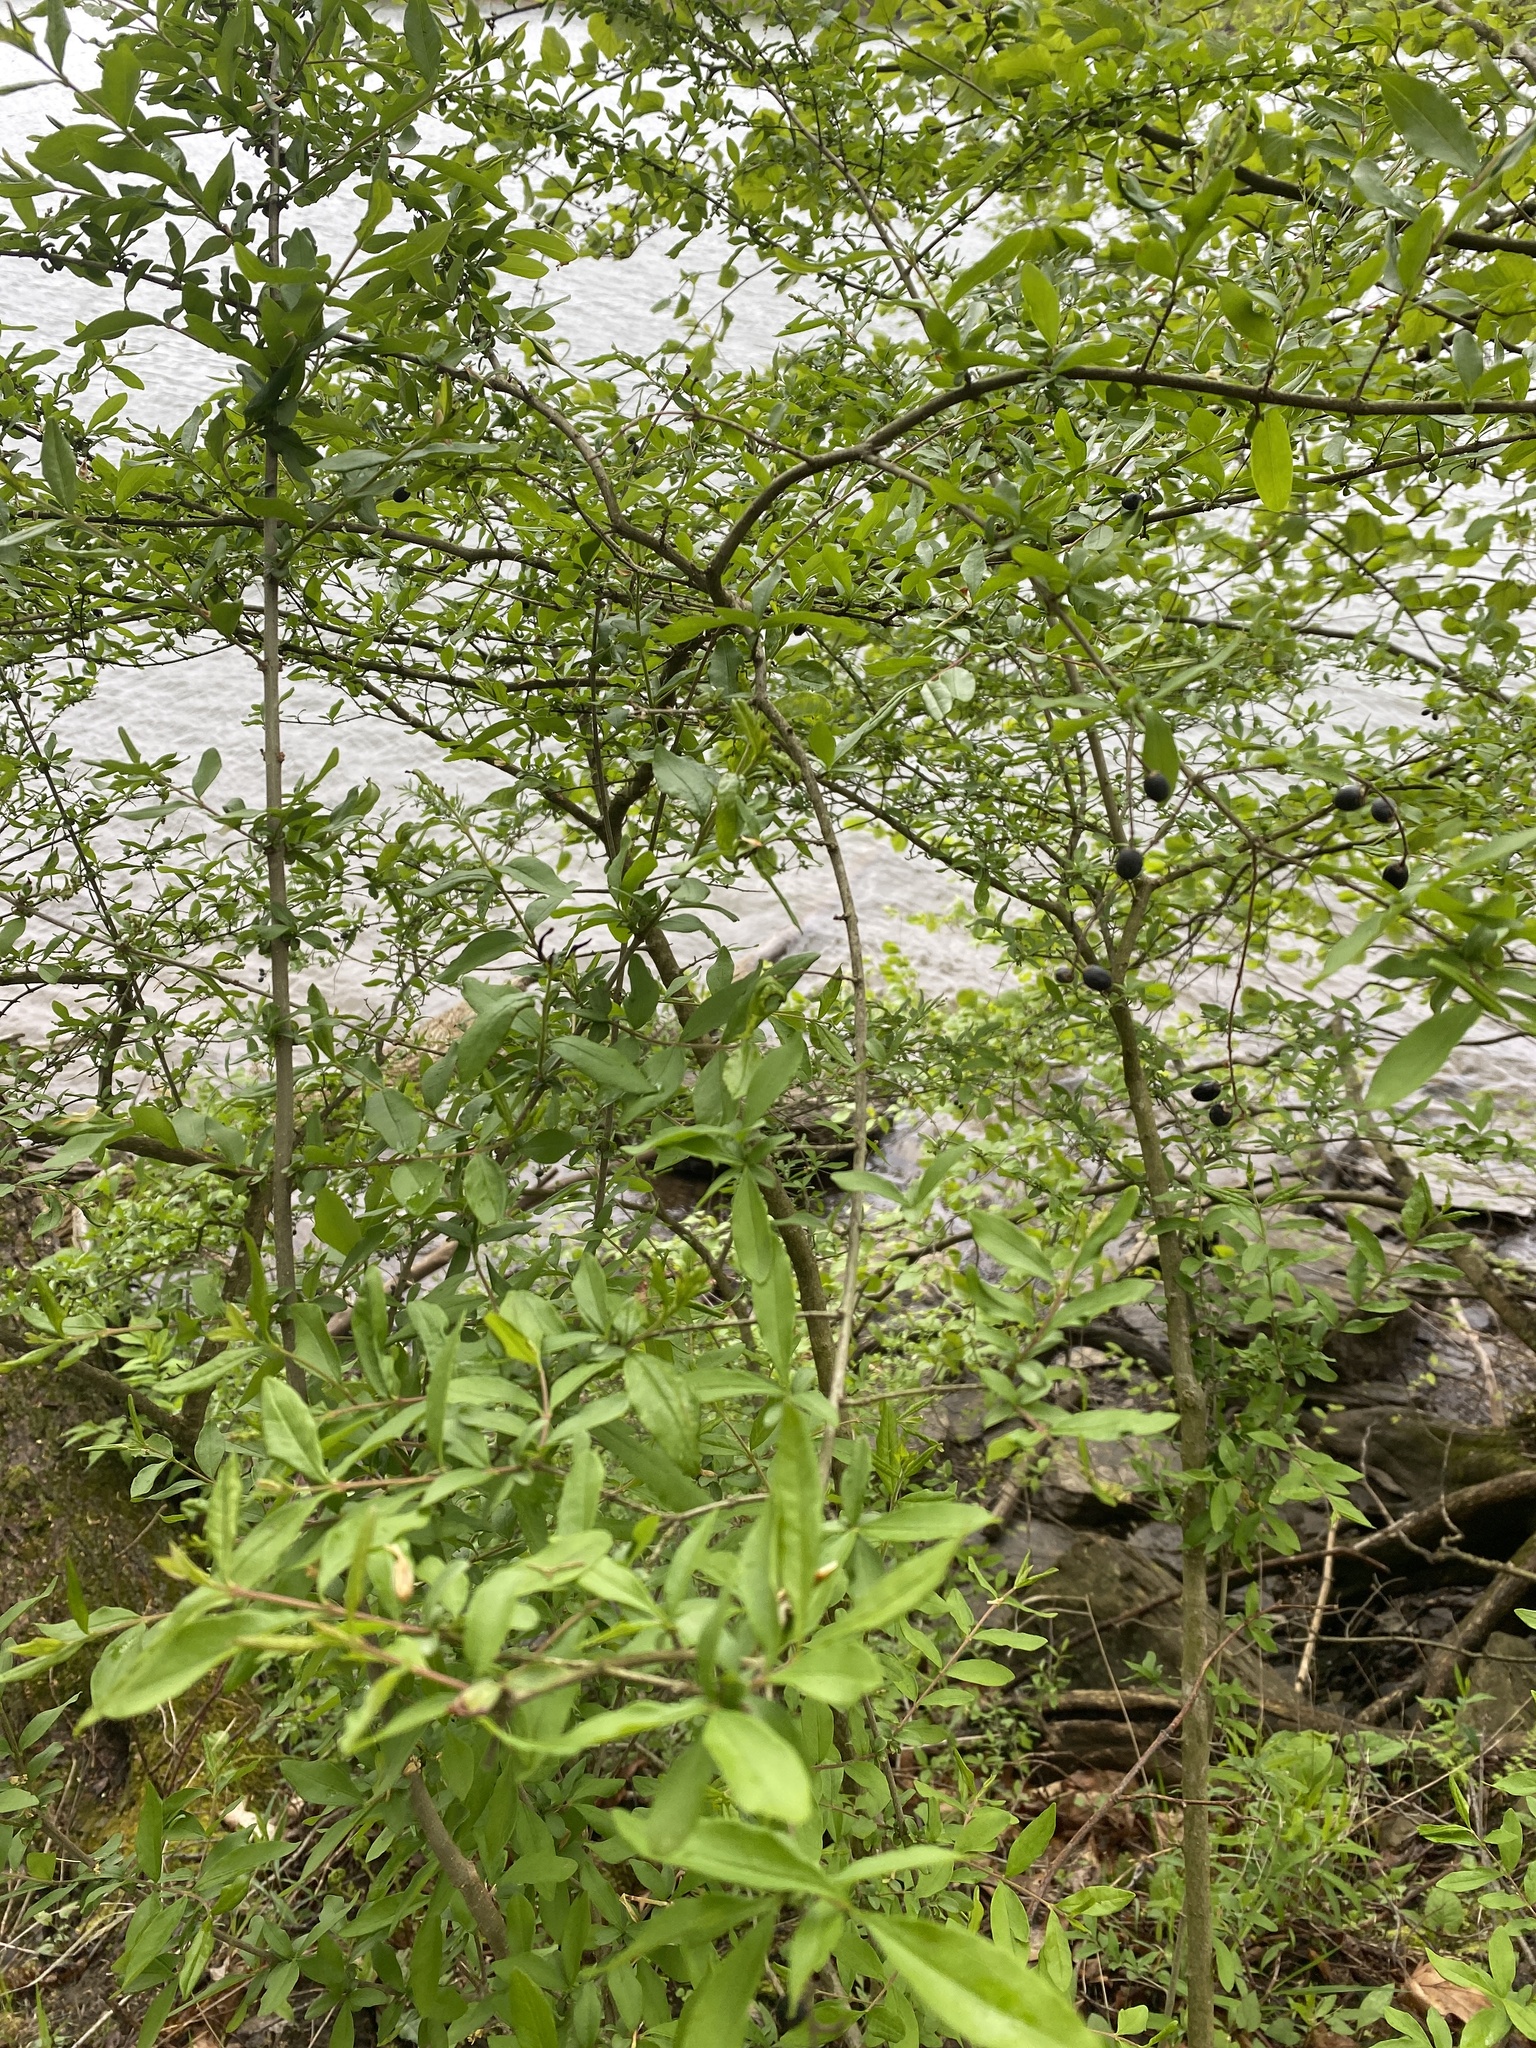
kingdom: Plantae
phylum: Tracheophyta
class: Magnoliopsida
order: Lamiales
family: Oleaceae
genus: Ligustrum
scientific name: Ligustrum obtusifolium
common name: Border privet
